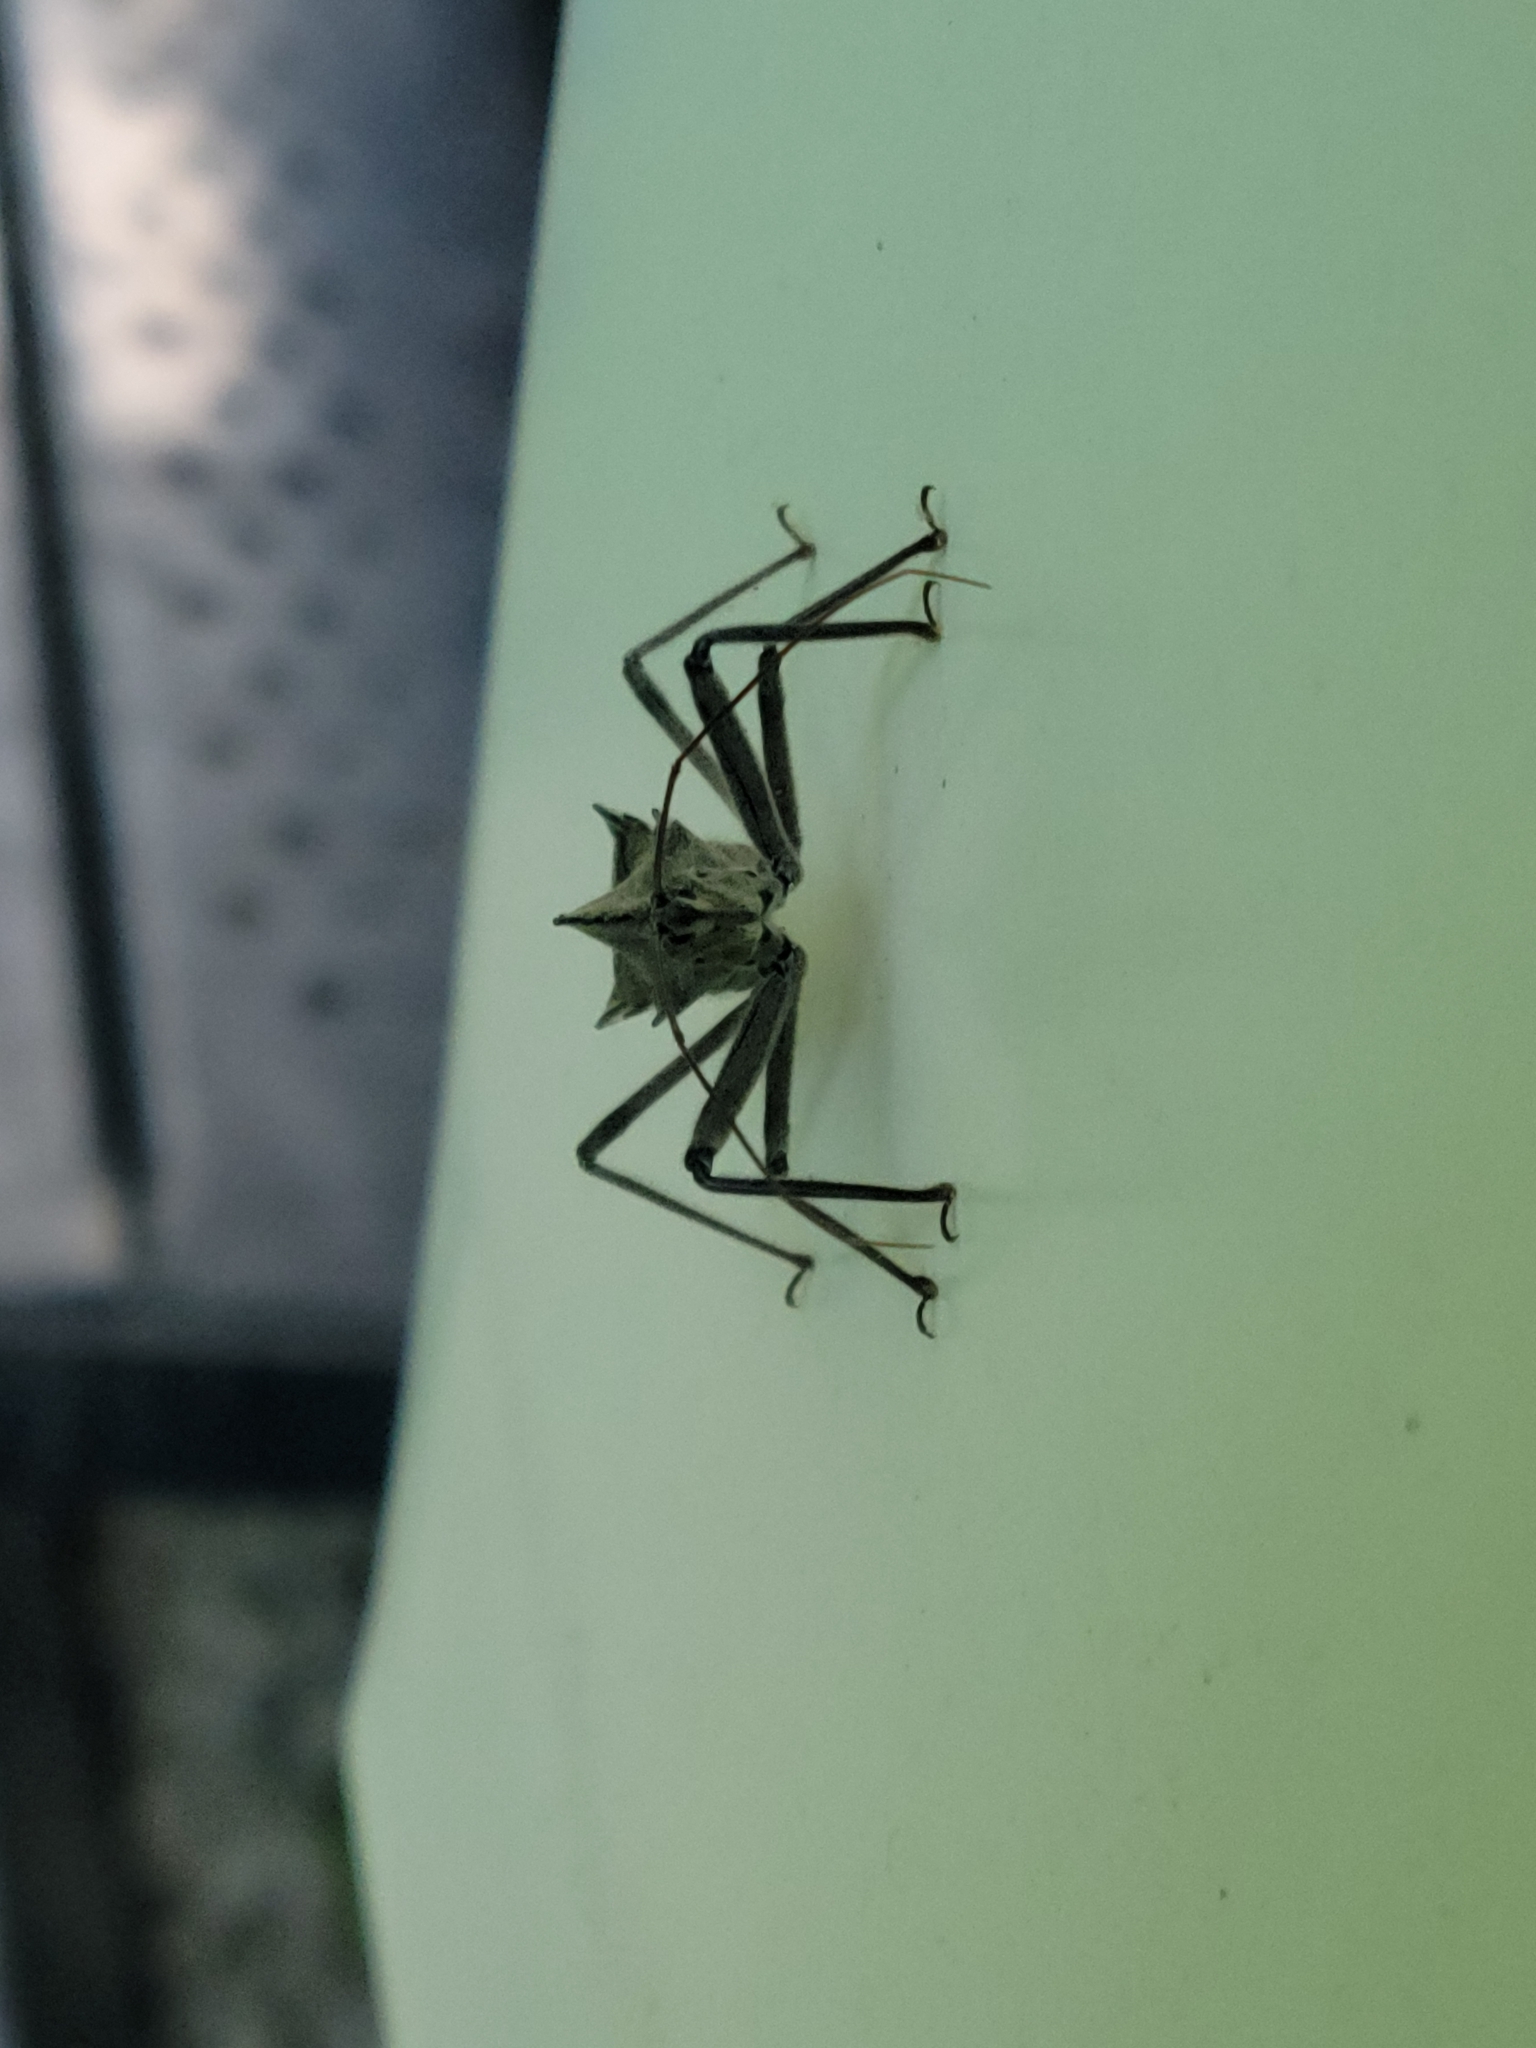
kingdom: Animalia
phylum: Arthropoda
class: Insecta
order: Hemiptera
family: Reduviidae
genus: Arilus
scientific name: Arilus cristatus
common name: North american wheel bug
